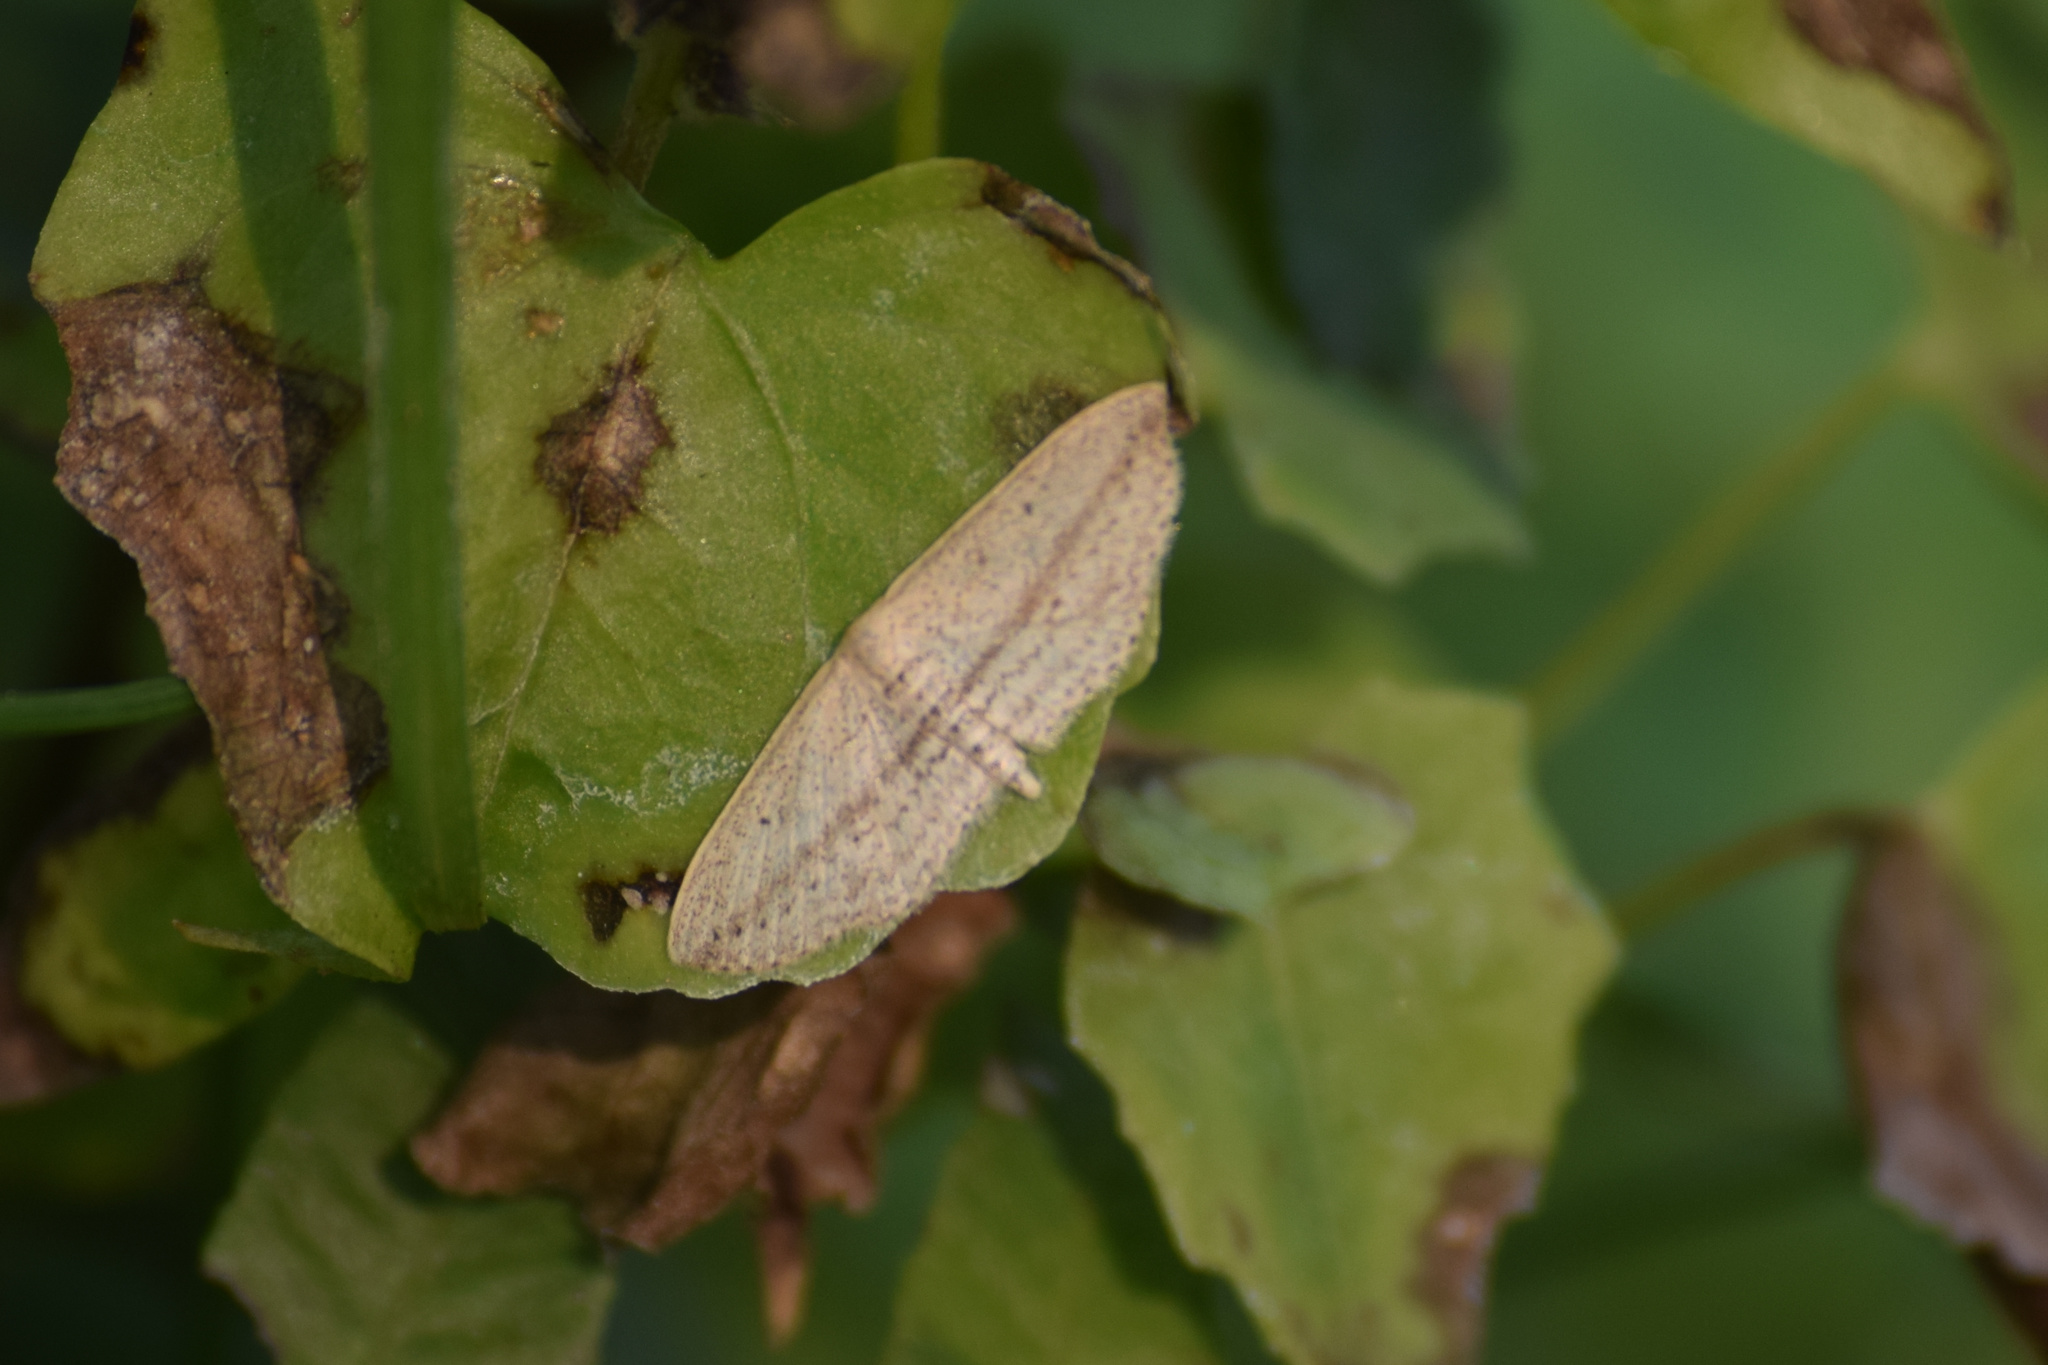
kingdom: Animalia
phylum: Arthropoda
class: Insecta
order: Lepidoptera
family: Geometridae
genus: Scopula
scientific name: Scopula emissaria
